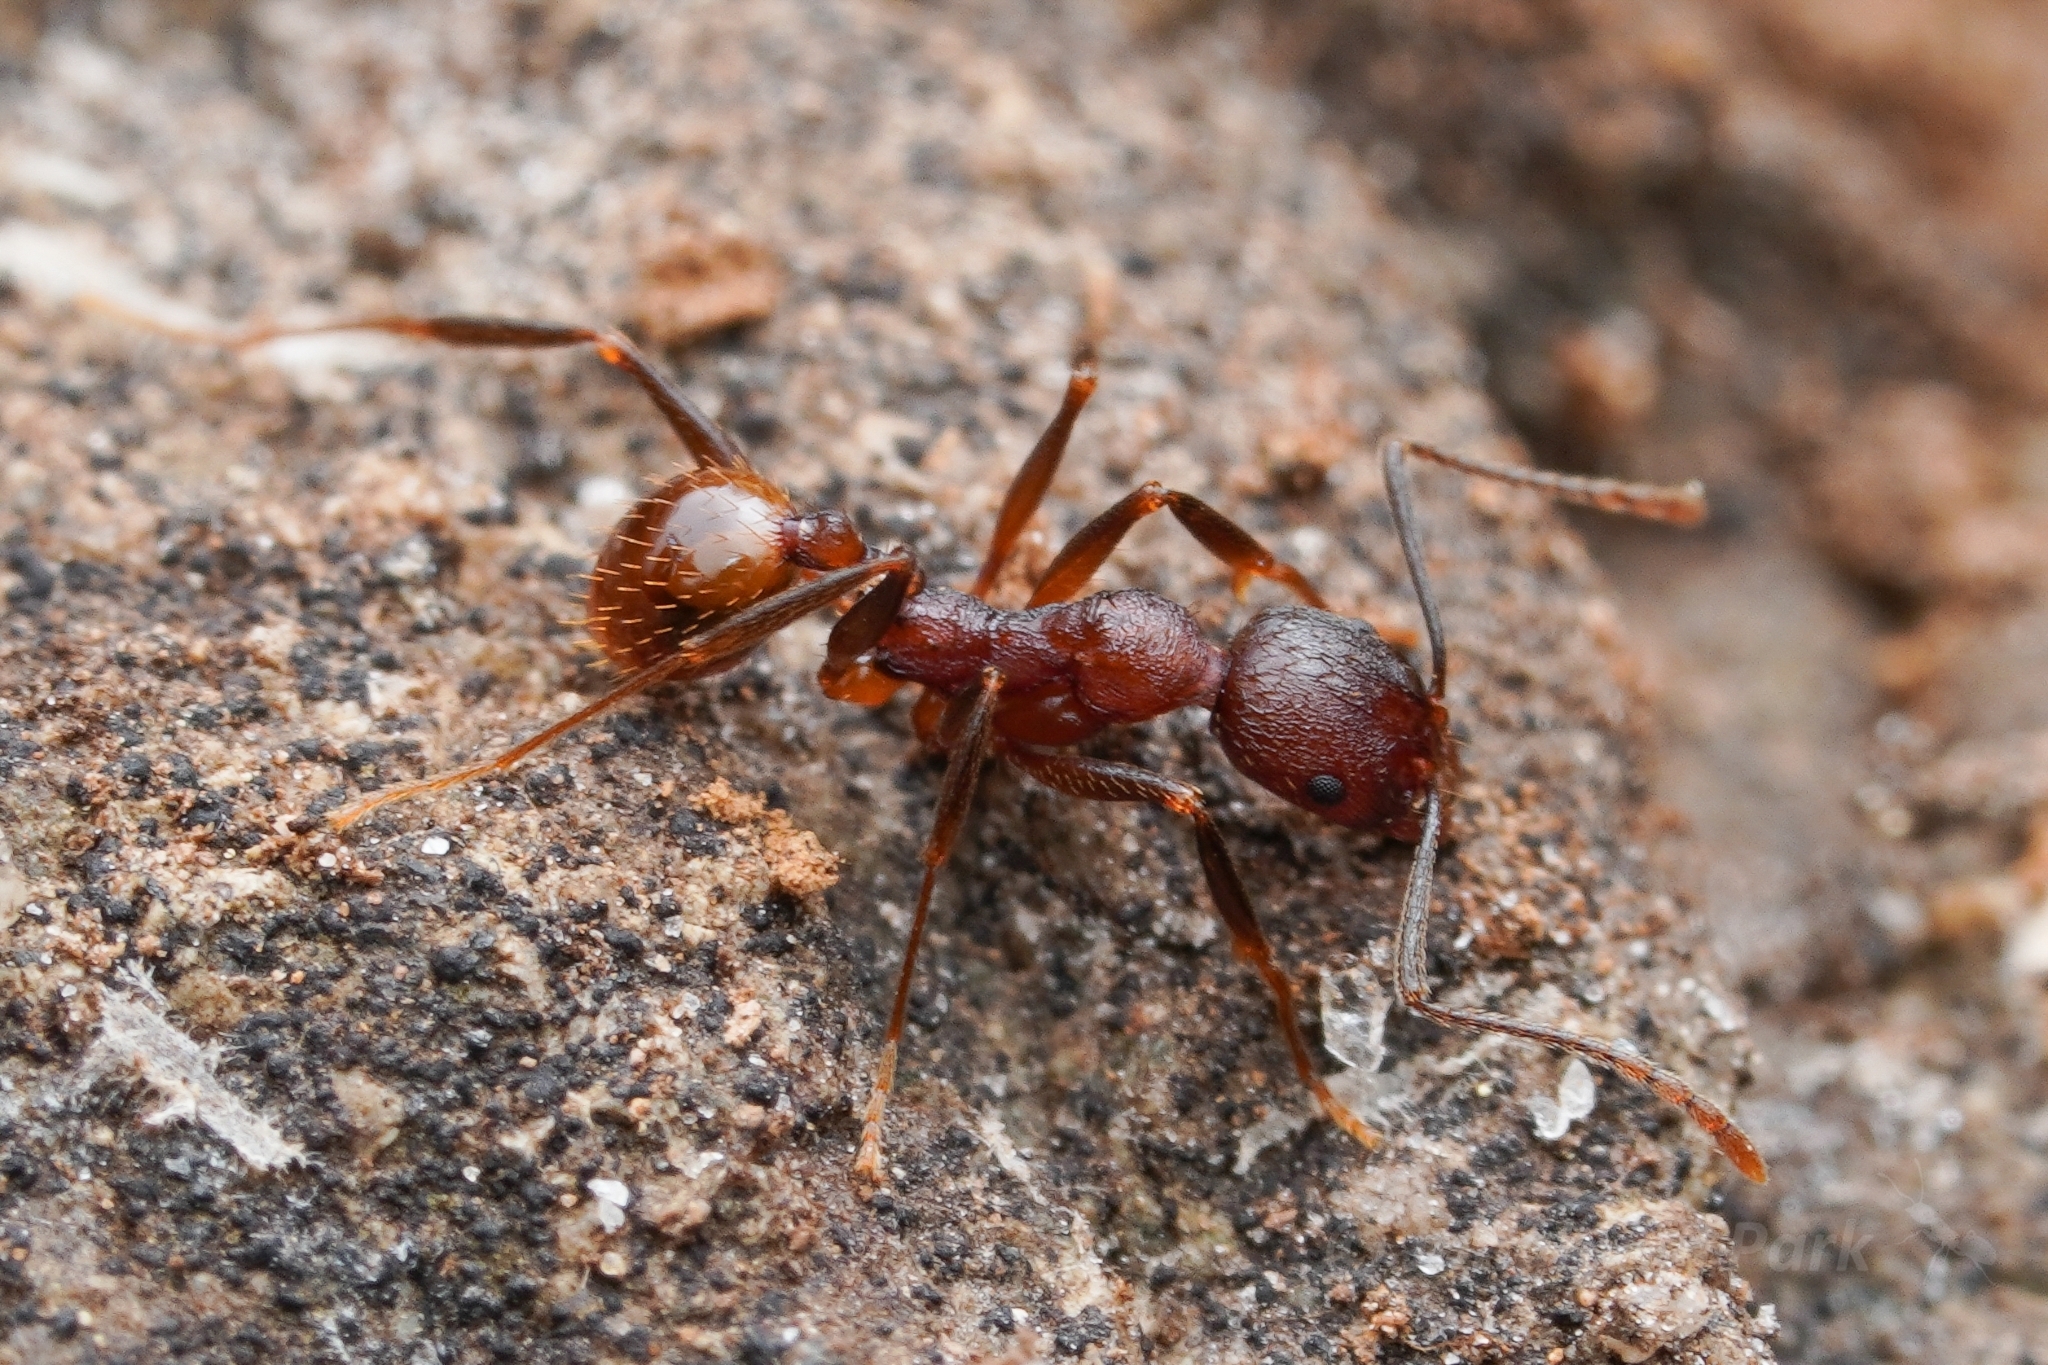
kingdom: Animalia
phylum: Arthropoda
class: Insecta
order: Hymenoptera
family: Formicidae
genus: Aphaenogaster
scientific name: Aphaenogaster fulva
